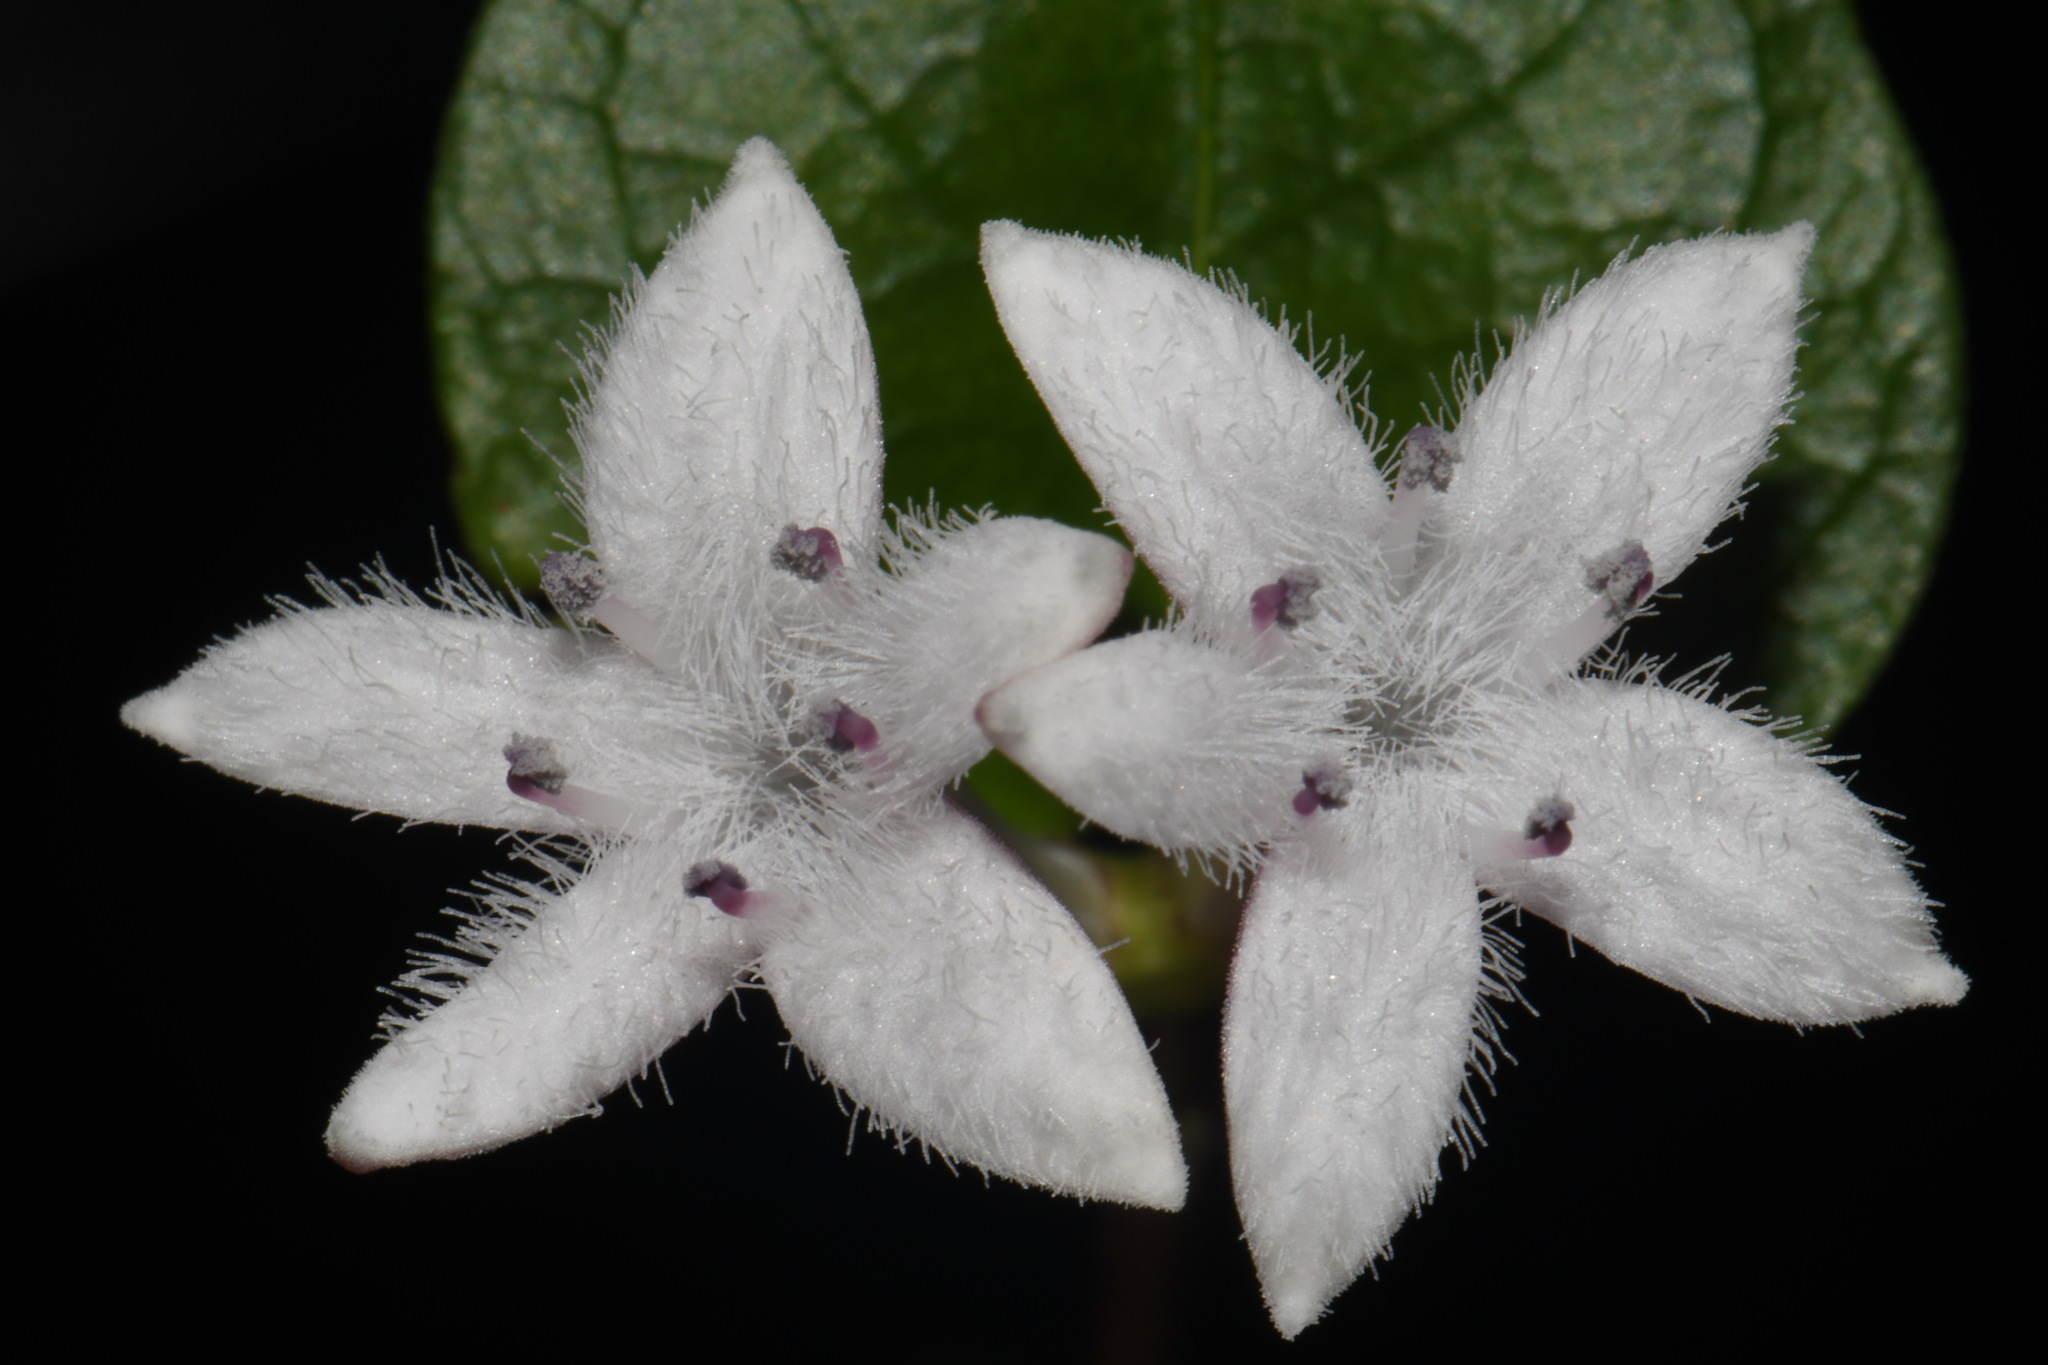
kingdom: Plantae
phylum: Tracheophyta
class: Magnoliopsida
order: Gentianales
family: Rubiaceae
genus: Mitchella
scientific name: Mitchella repens
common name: Partridge-berry
